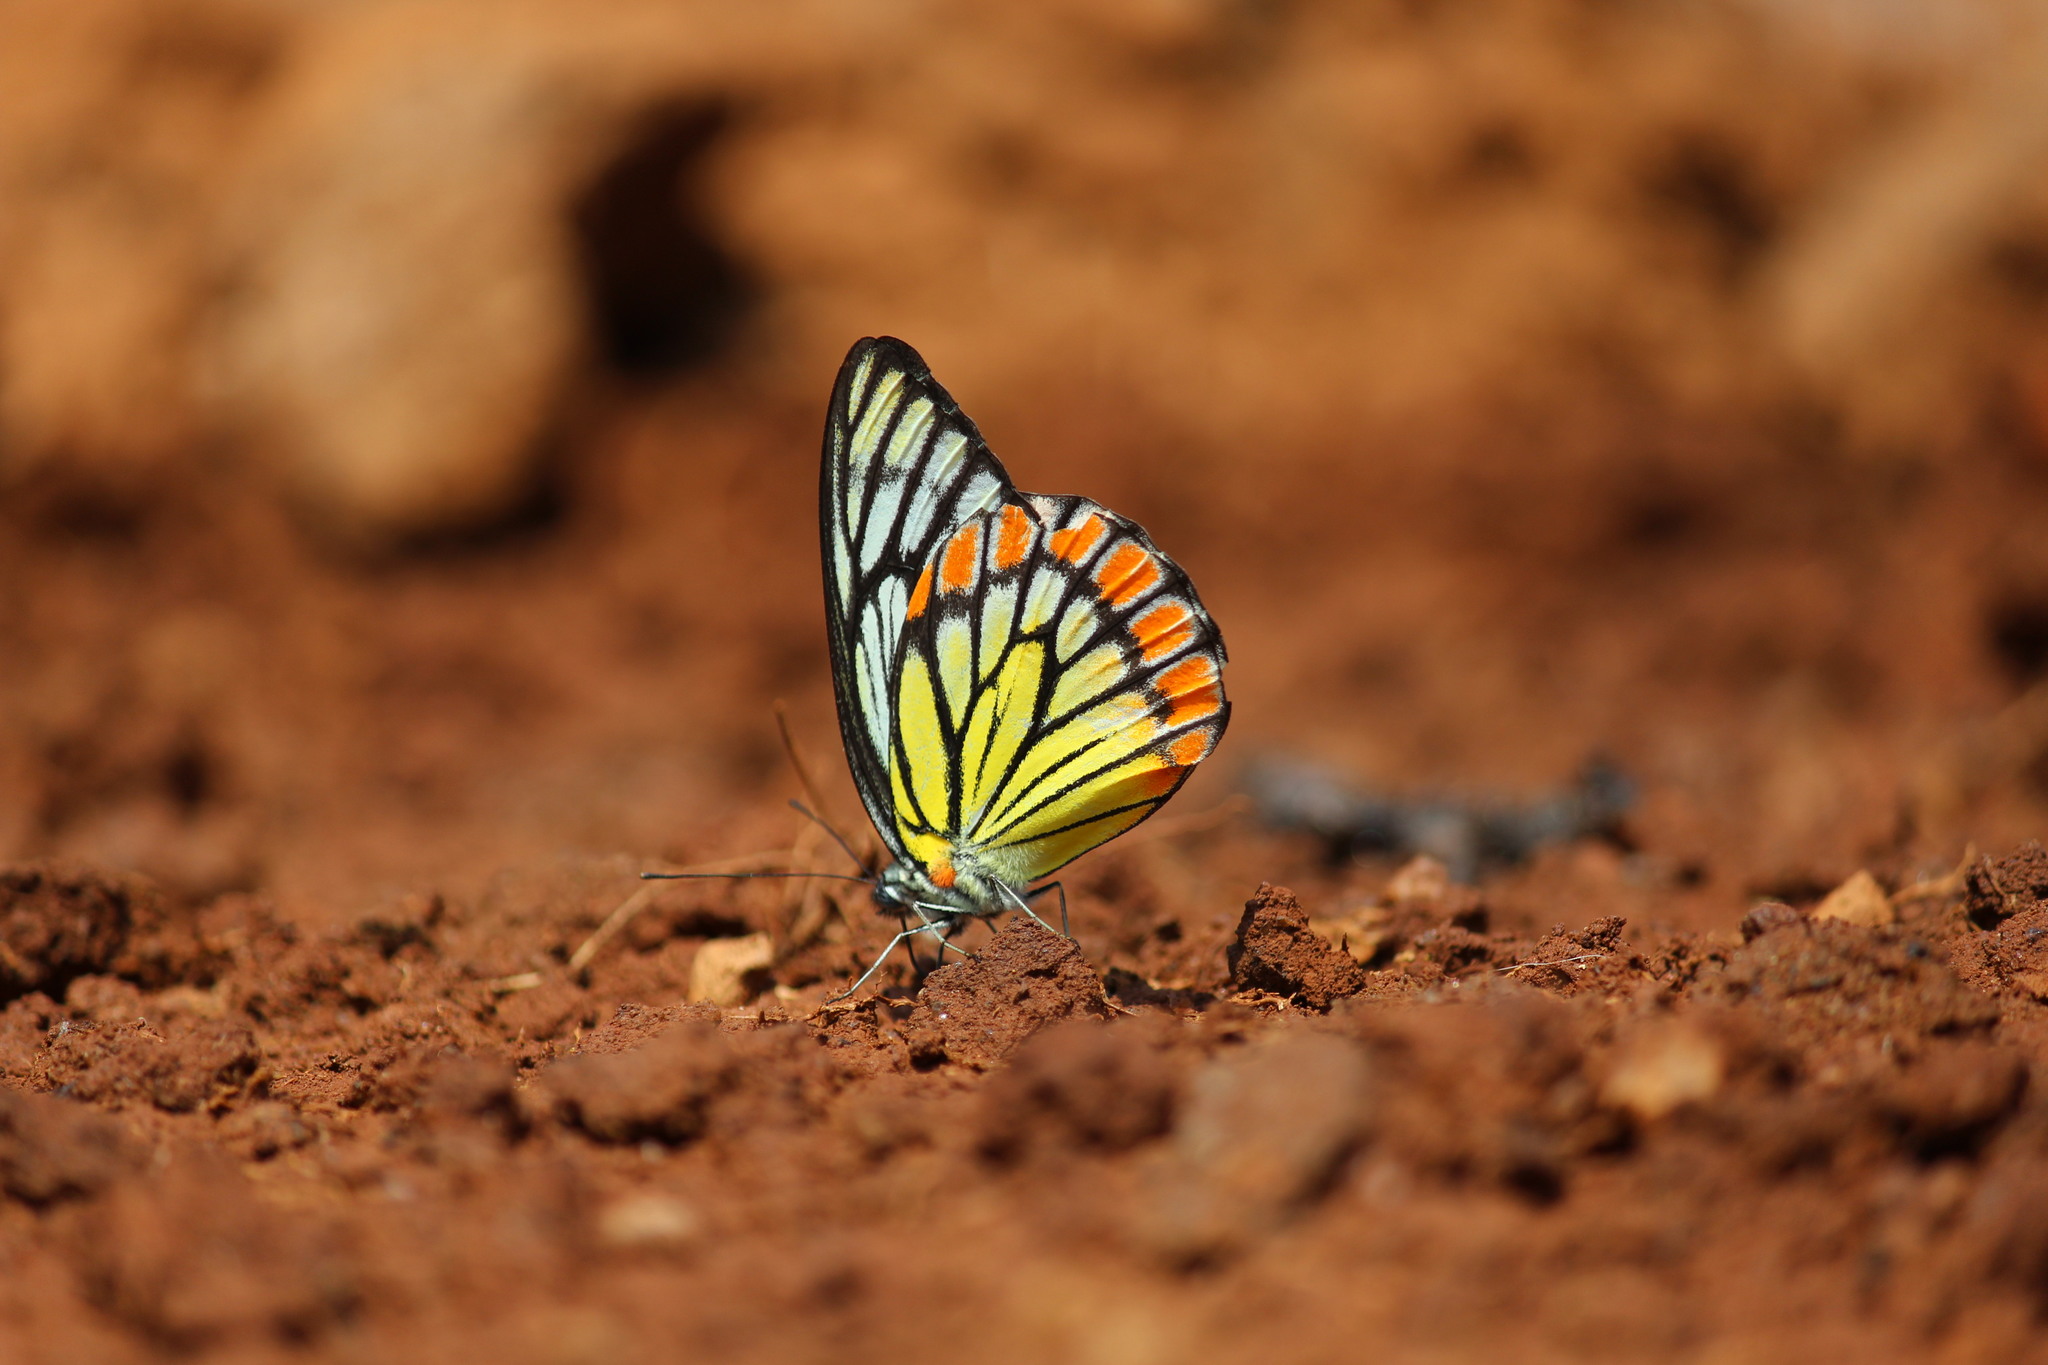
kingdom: Animalia
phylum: Arthropoda
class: Insecta
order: Lepidoptera
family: Pieridae
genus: Prioneris
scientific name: Prioneris sita
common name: Painted sawtooth
